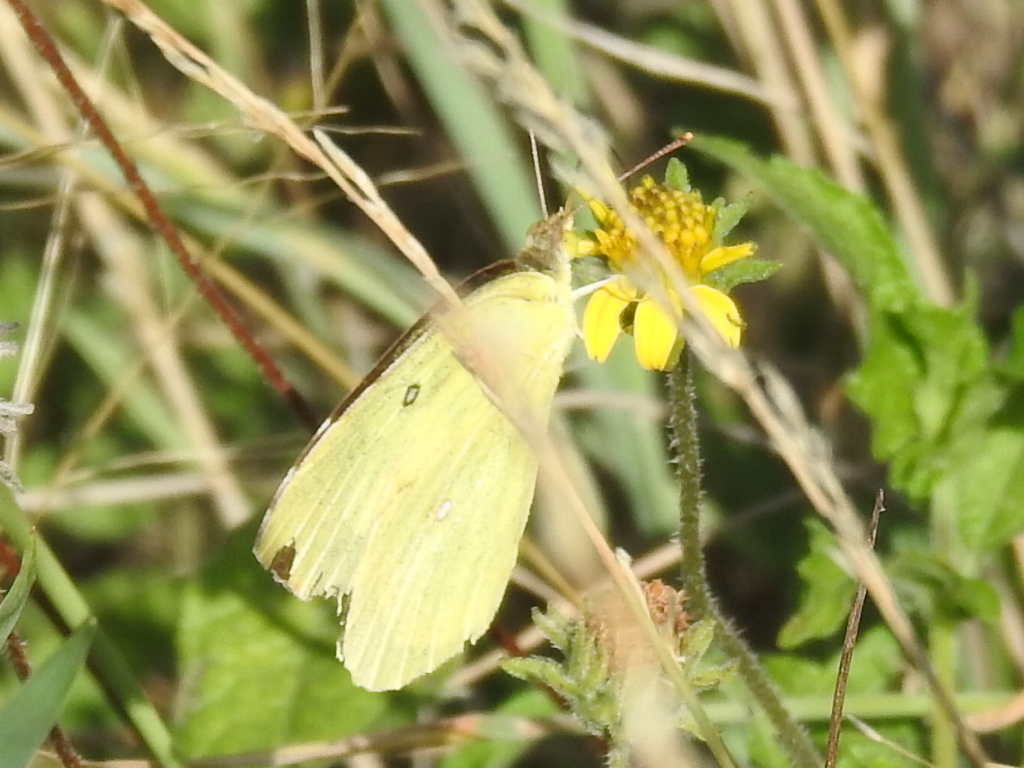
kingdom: Animalia
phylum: Arthropoda
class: Insecta
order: Lepidoptera
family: Pieridae
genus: Zerene
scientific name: Zerene cesonia
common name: Southern dogface
